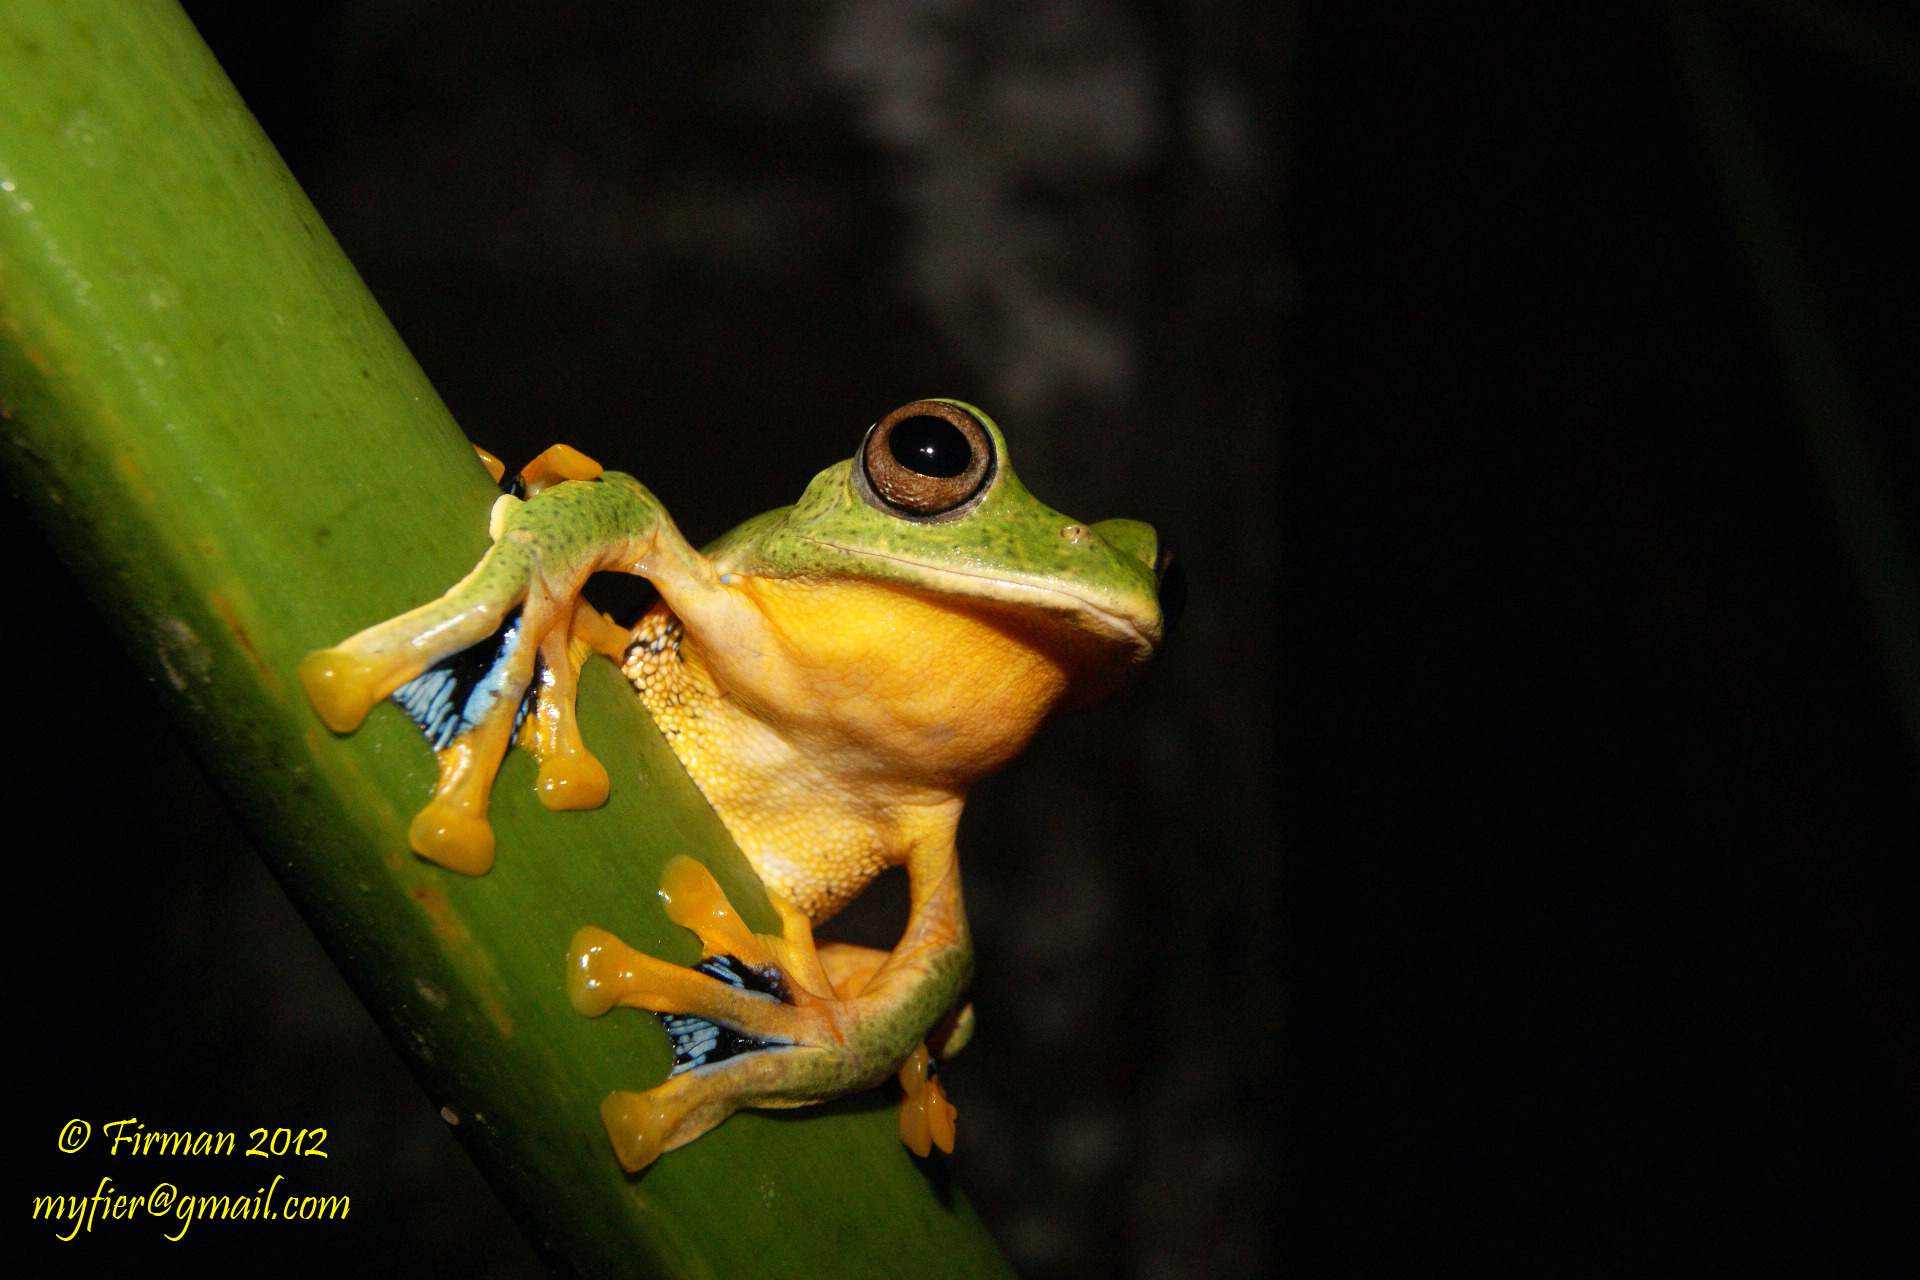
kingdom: Animalia
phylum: Chordata
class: Amphibia
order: Anura
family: Rhacophoridae
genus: Rhacophorus
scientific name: Rhacophorus reinwardtii
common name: Reinwardt’s flying frog
